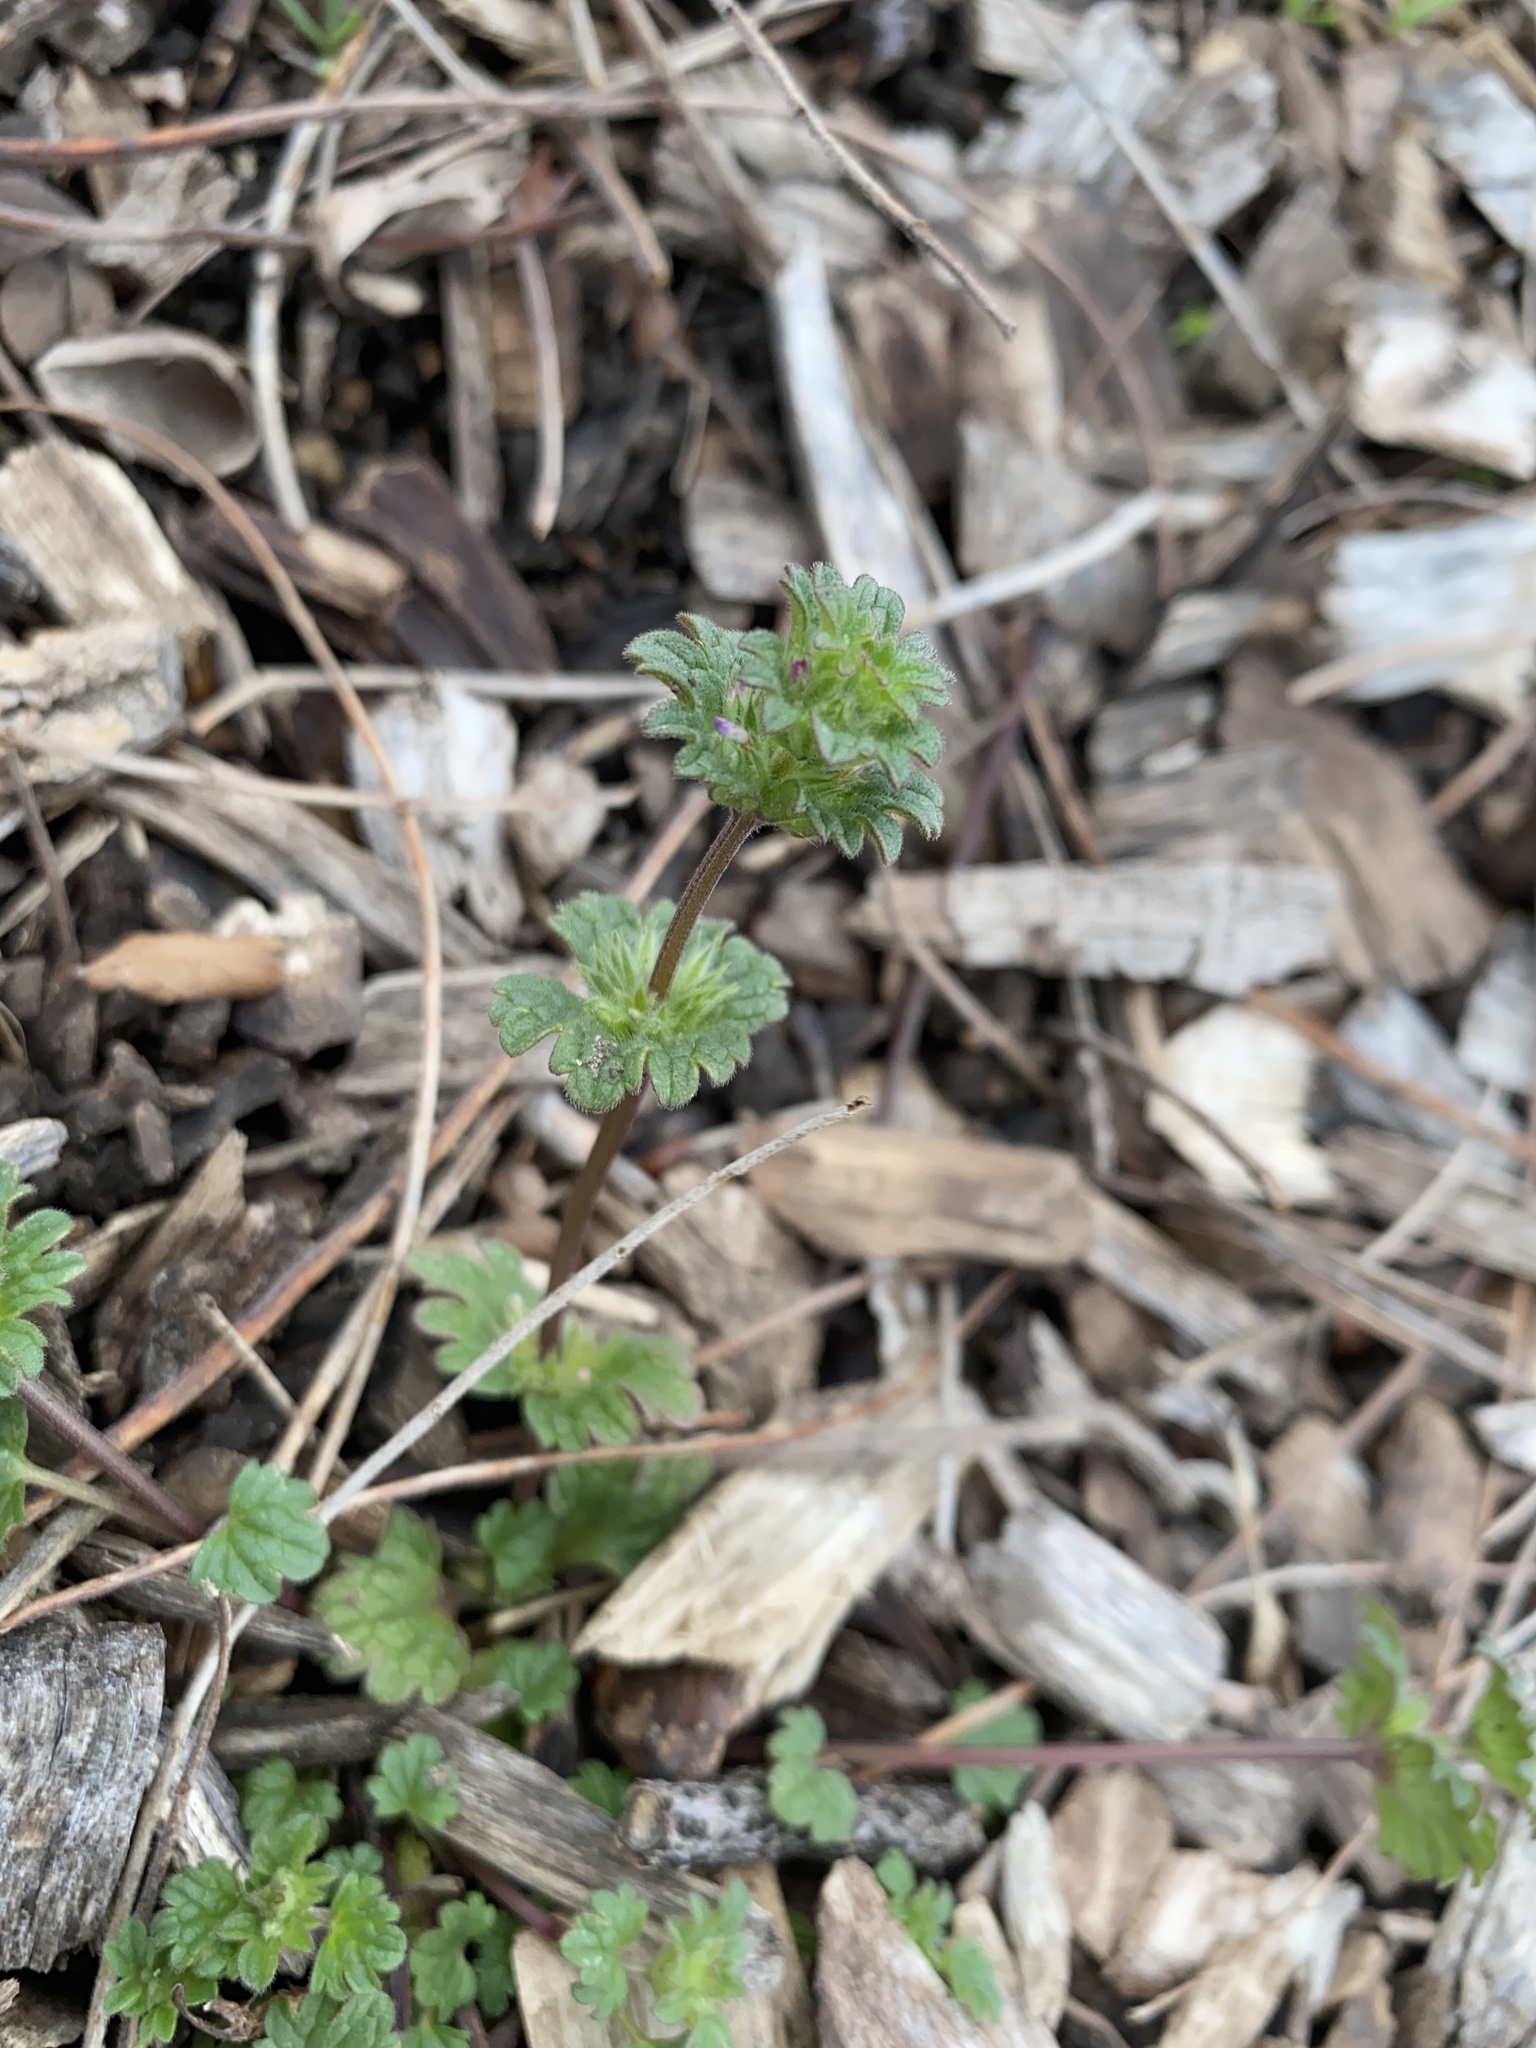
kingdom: Plantae
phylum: Tracheophyta
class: Magnoliopsida
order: Lamiales
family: Lamiaceae
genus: Lamium
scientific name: Lamium amplexicaule
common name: Henbit dead-nettle
